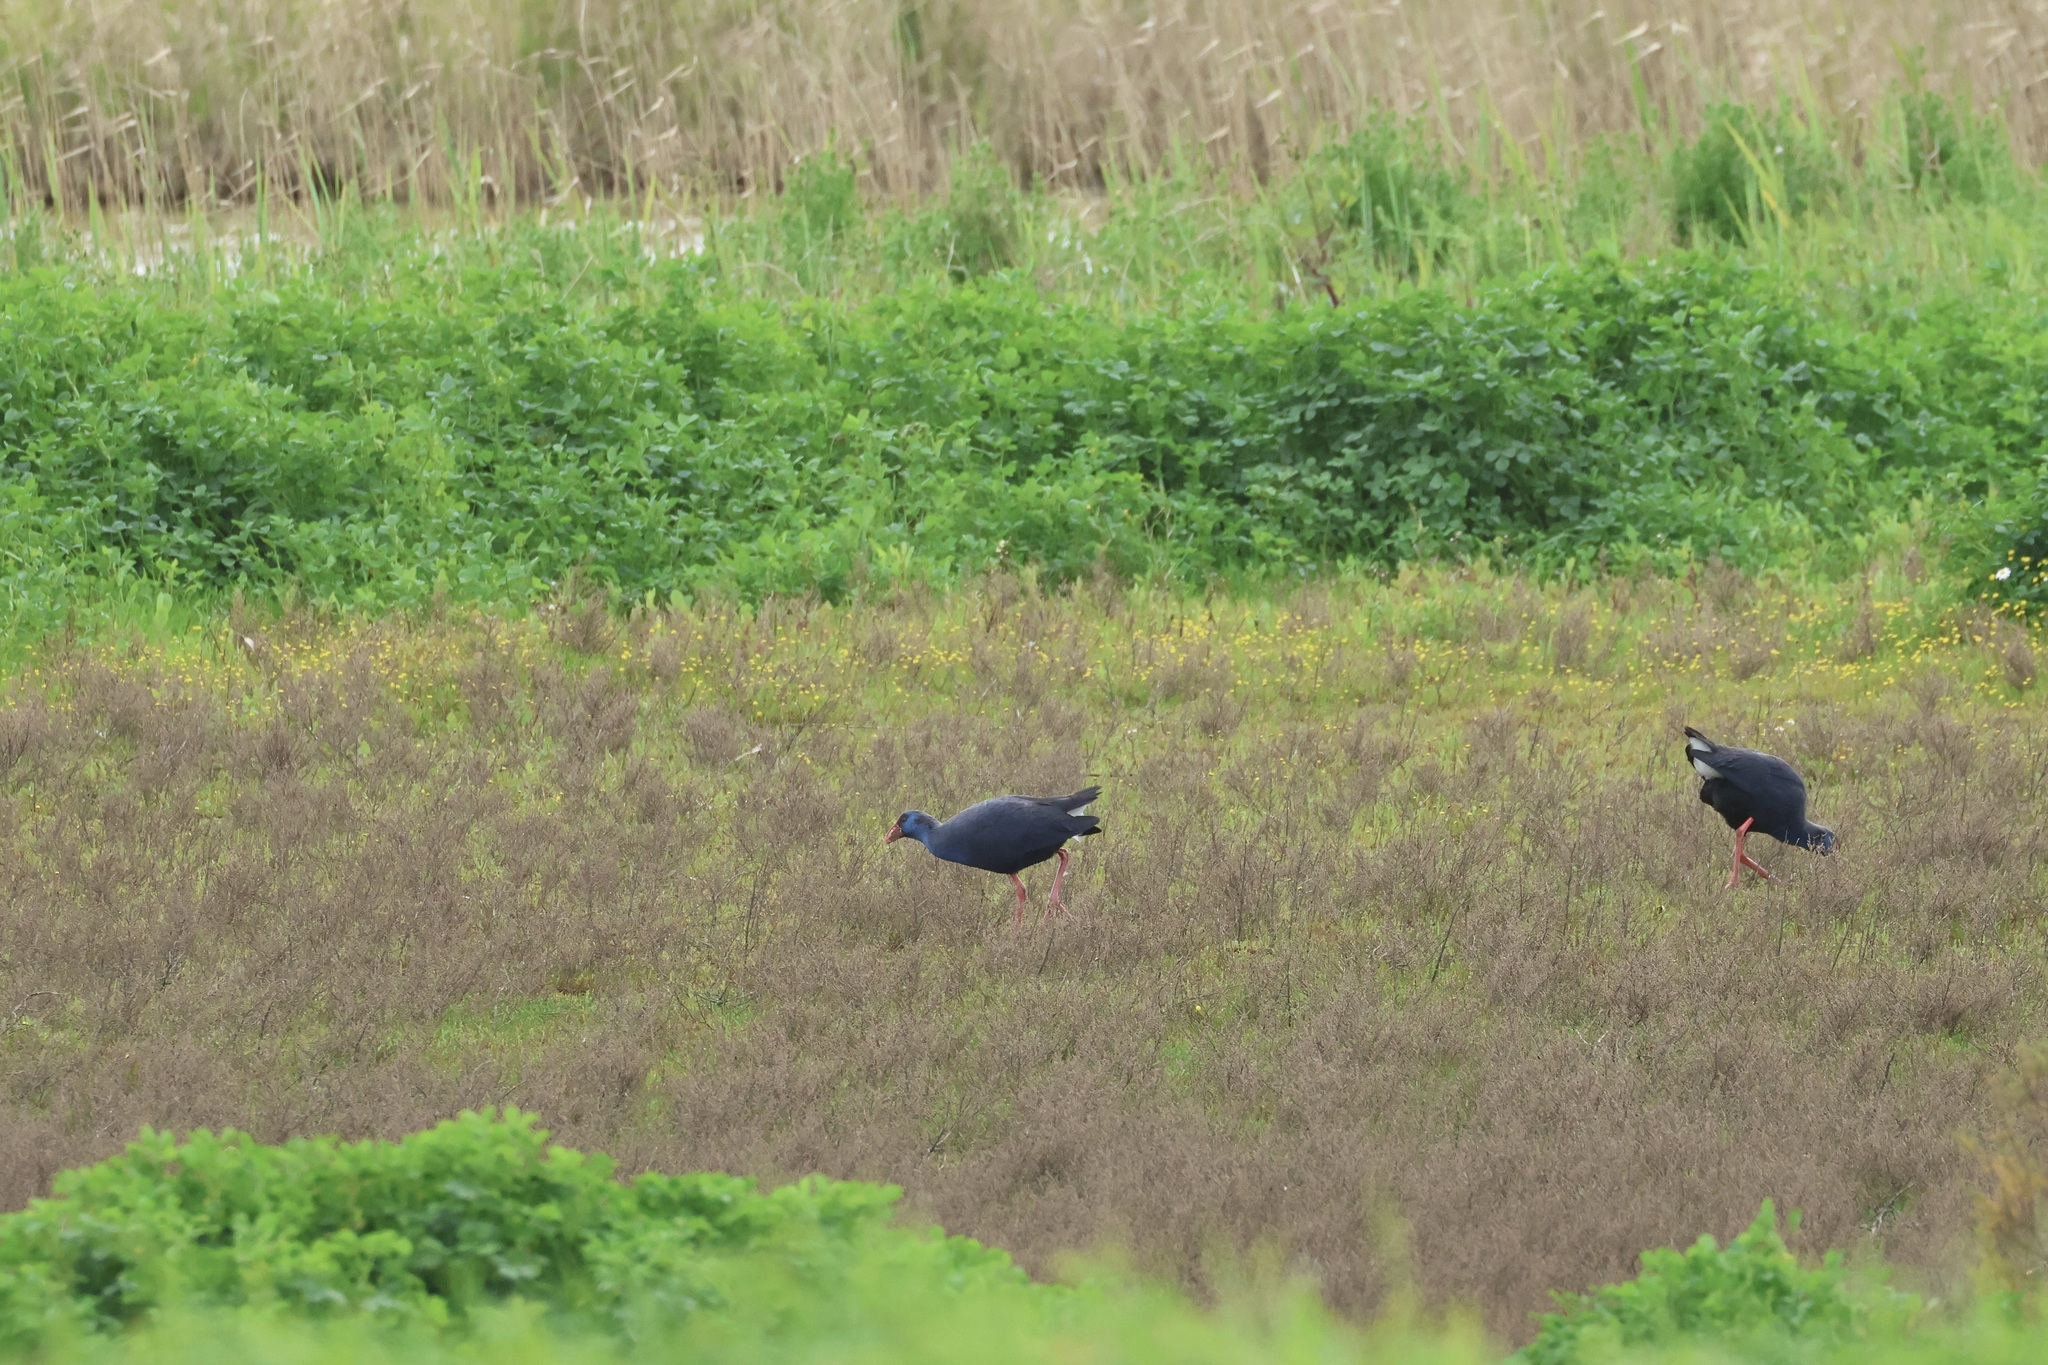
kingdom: Animalia
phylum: Chordata
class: Aves
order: Gruiformes
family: Rallidae
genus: Porphyrio
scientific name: Porphyrio porphyrio
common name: Purple swamphen
